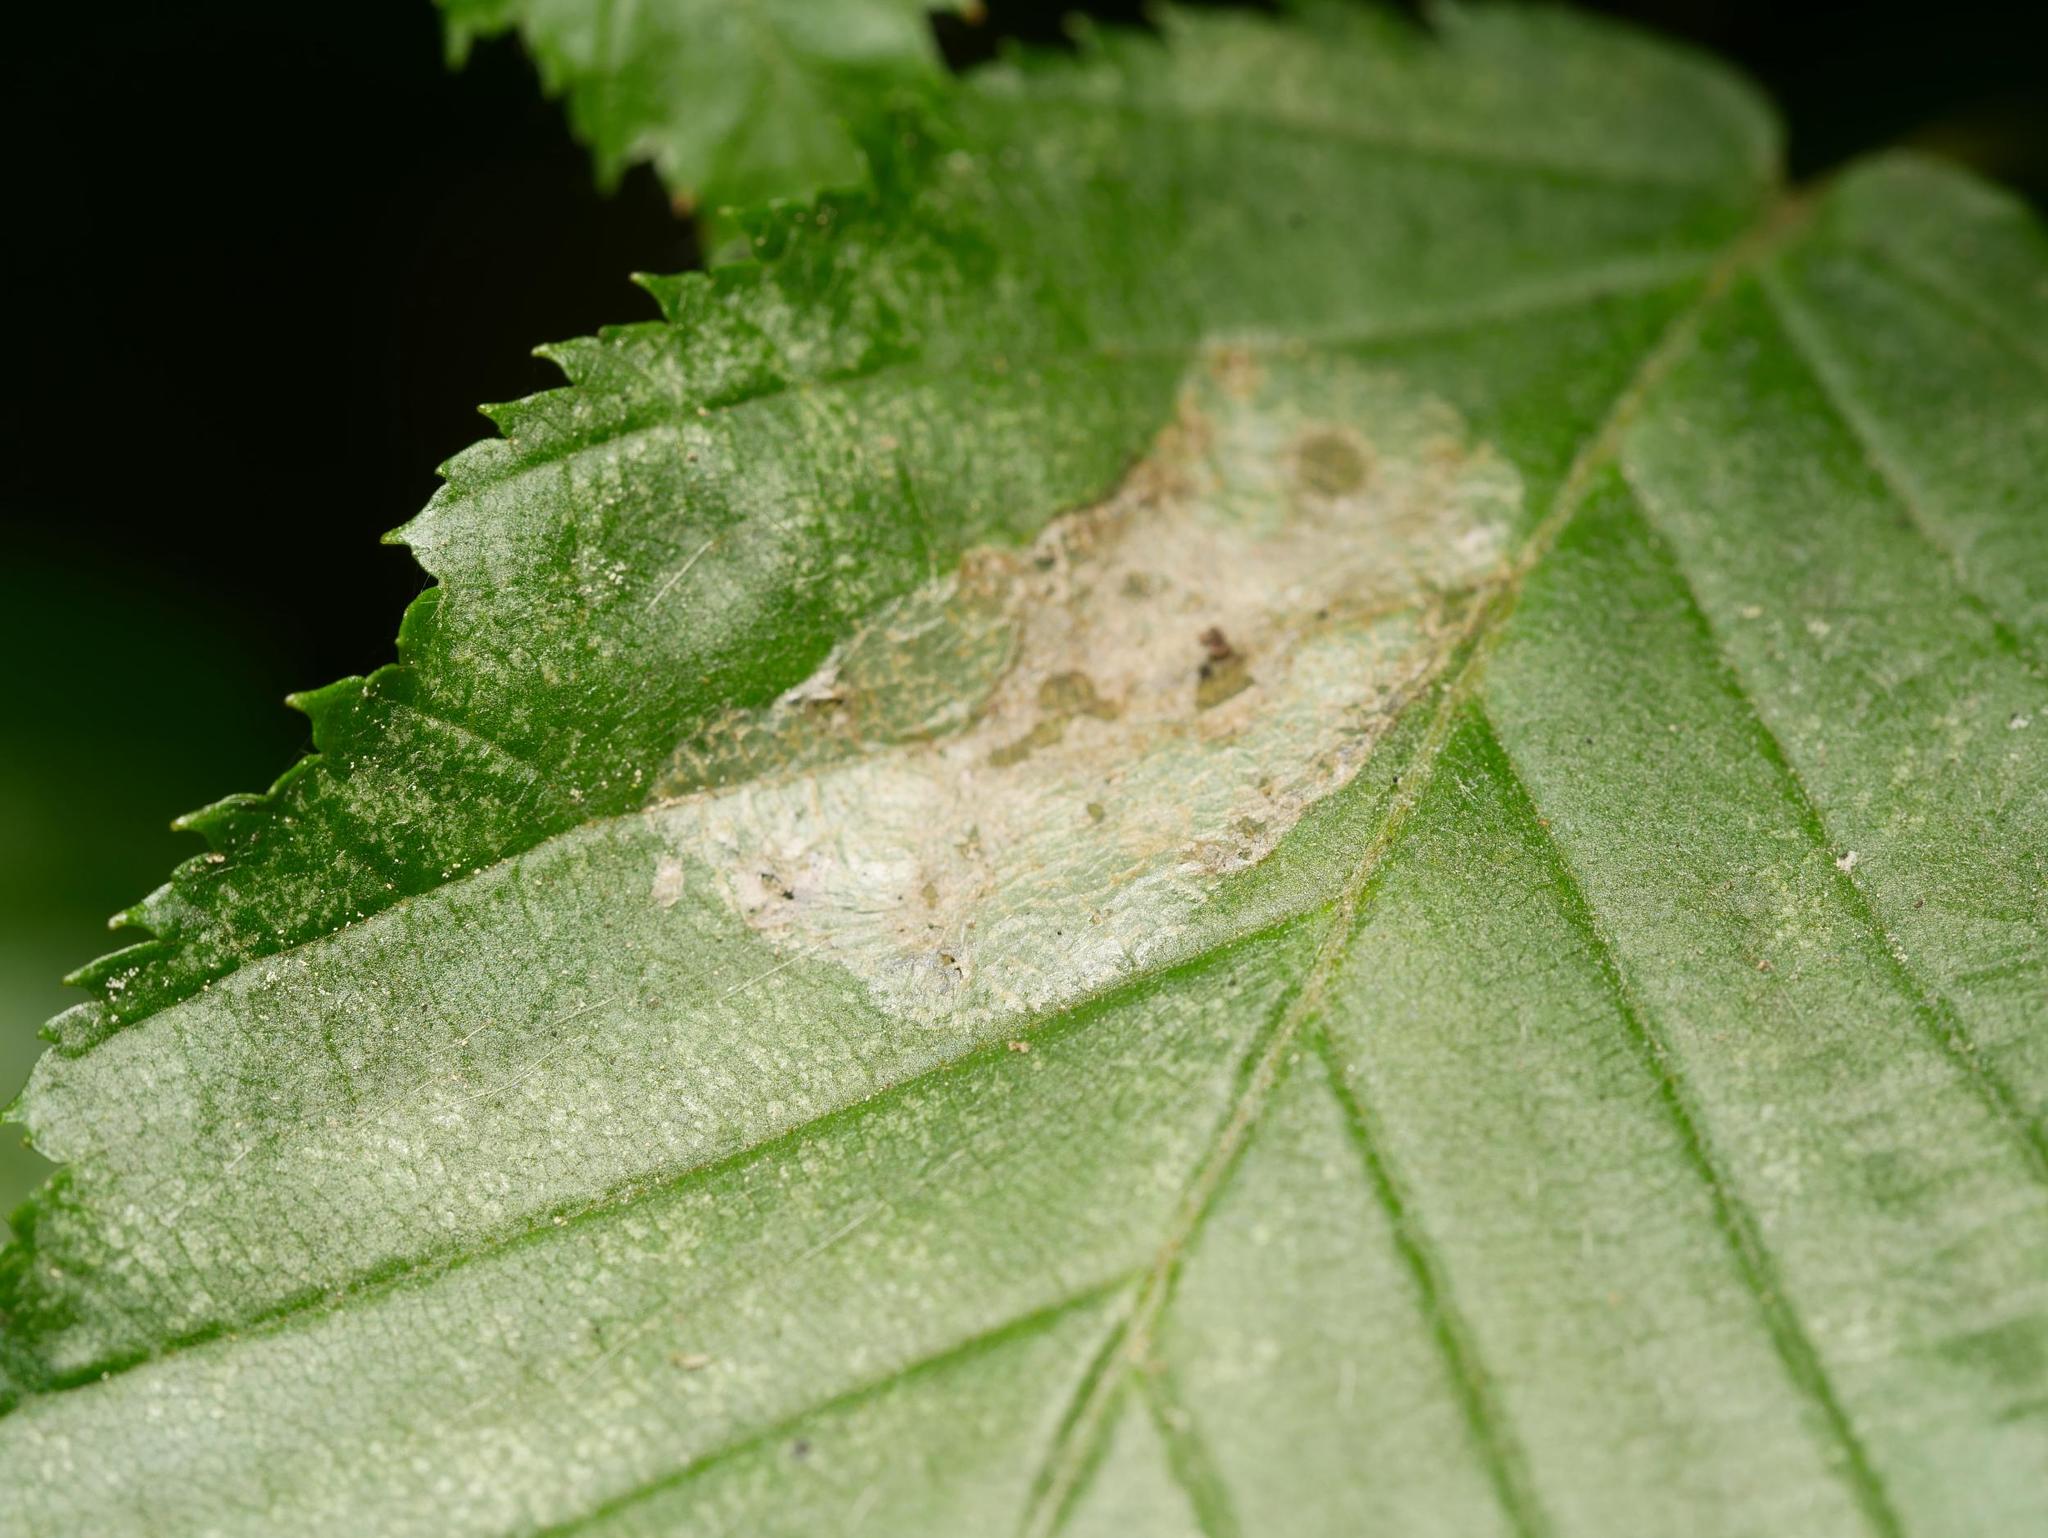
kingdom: Animalia
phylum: Arthropoda
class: Insecta
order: Lepidoptera
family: Gracillariidae
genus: Phyllonorycter
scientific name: Phyllonorycter esperella
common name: Dark hornbeam midget
